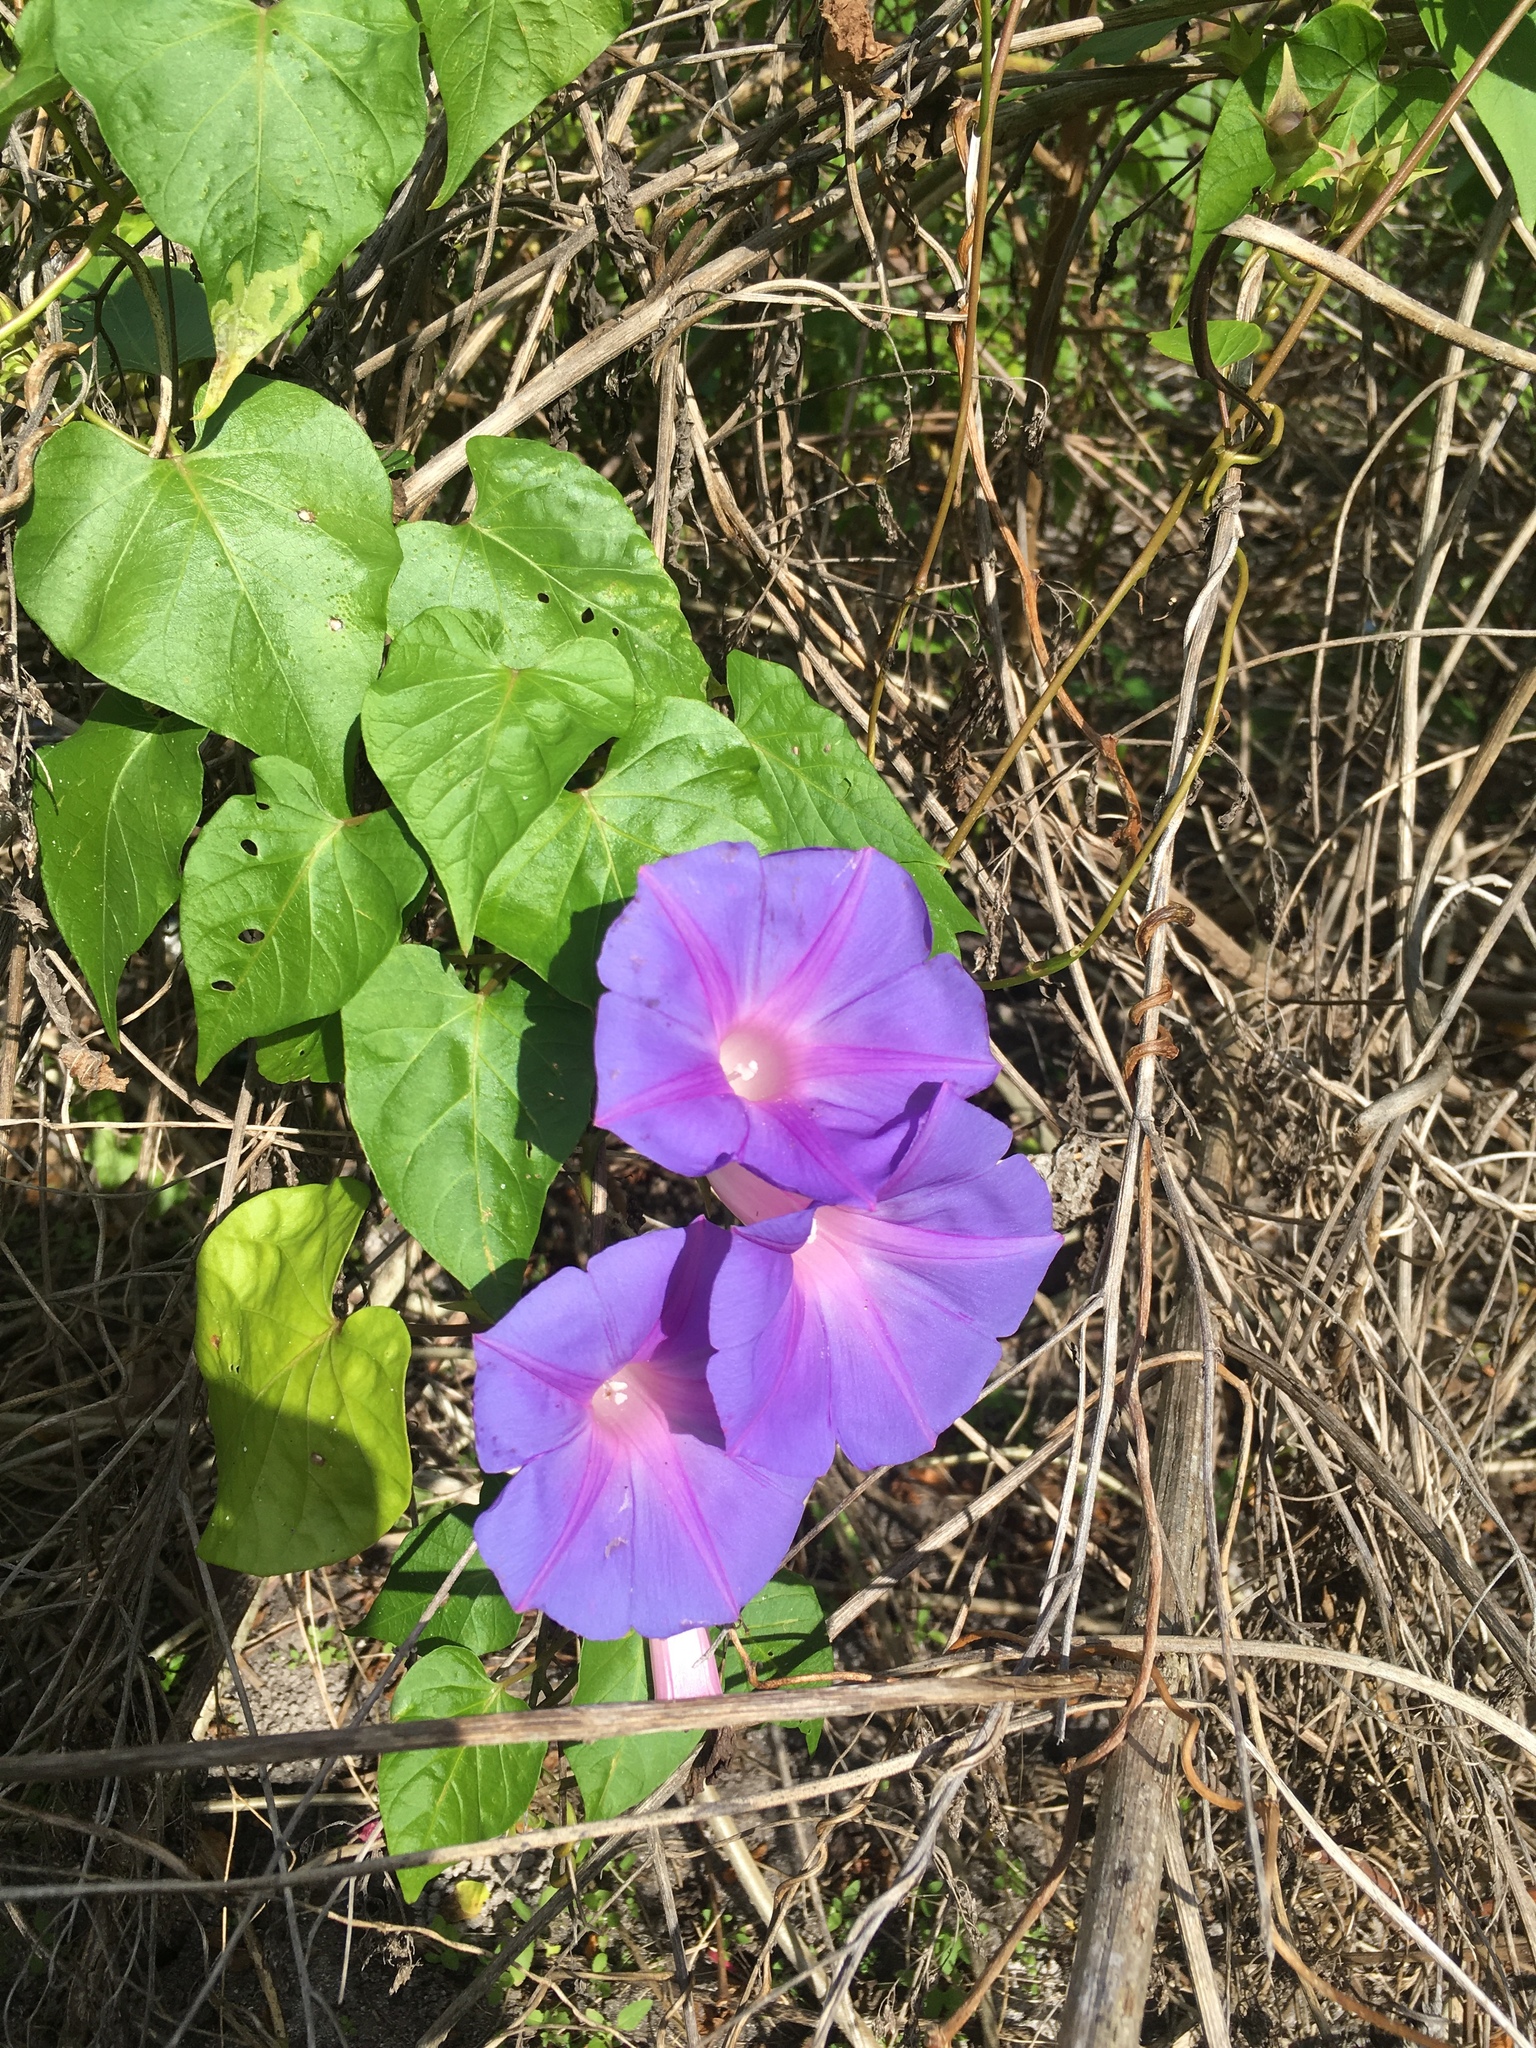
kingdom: Plantae
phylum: Tracheophyta
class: Magnoliopsida
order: Solanales
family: Convolvulaceae
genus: Ipomoea
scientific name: Ipomoea indica
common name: Blue dawnflower
